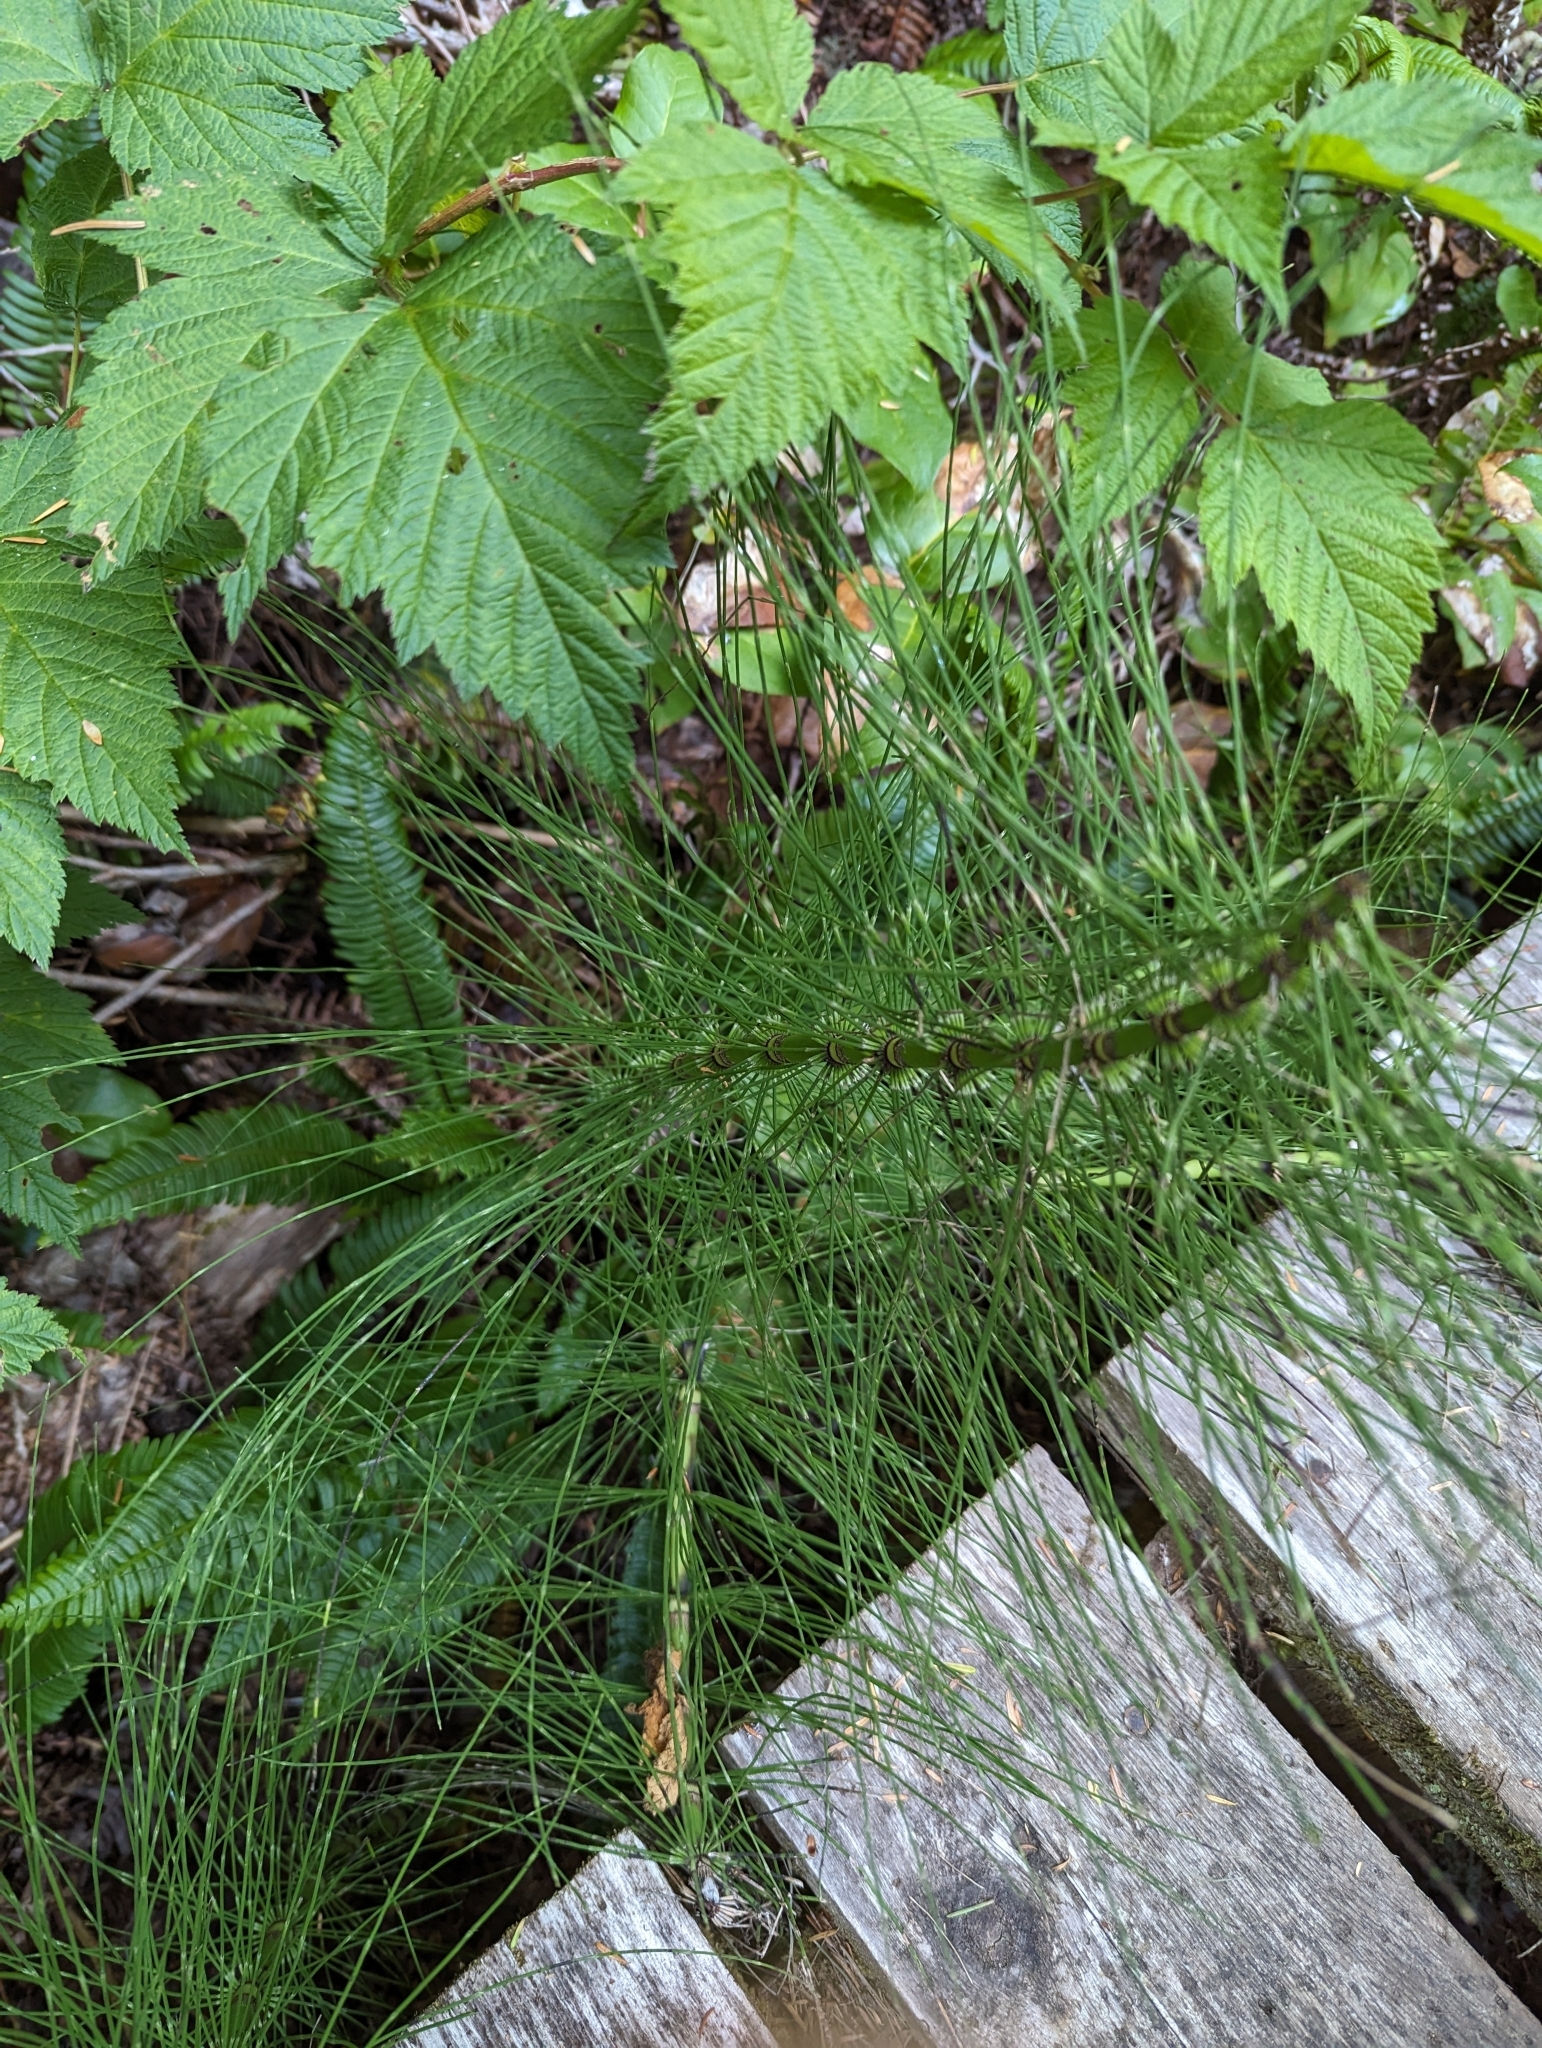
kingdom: Plantae
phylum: Tracheophyta
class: Polypodiopsida
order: Equisetales
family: Equisetaceae
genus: Equisetum
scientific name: Equisetum braunii
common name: Braun's horsetail
